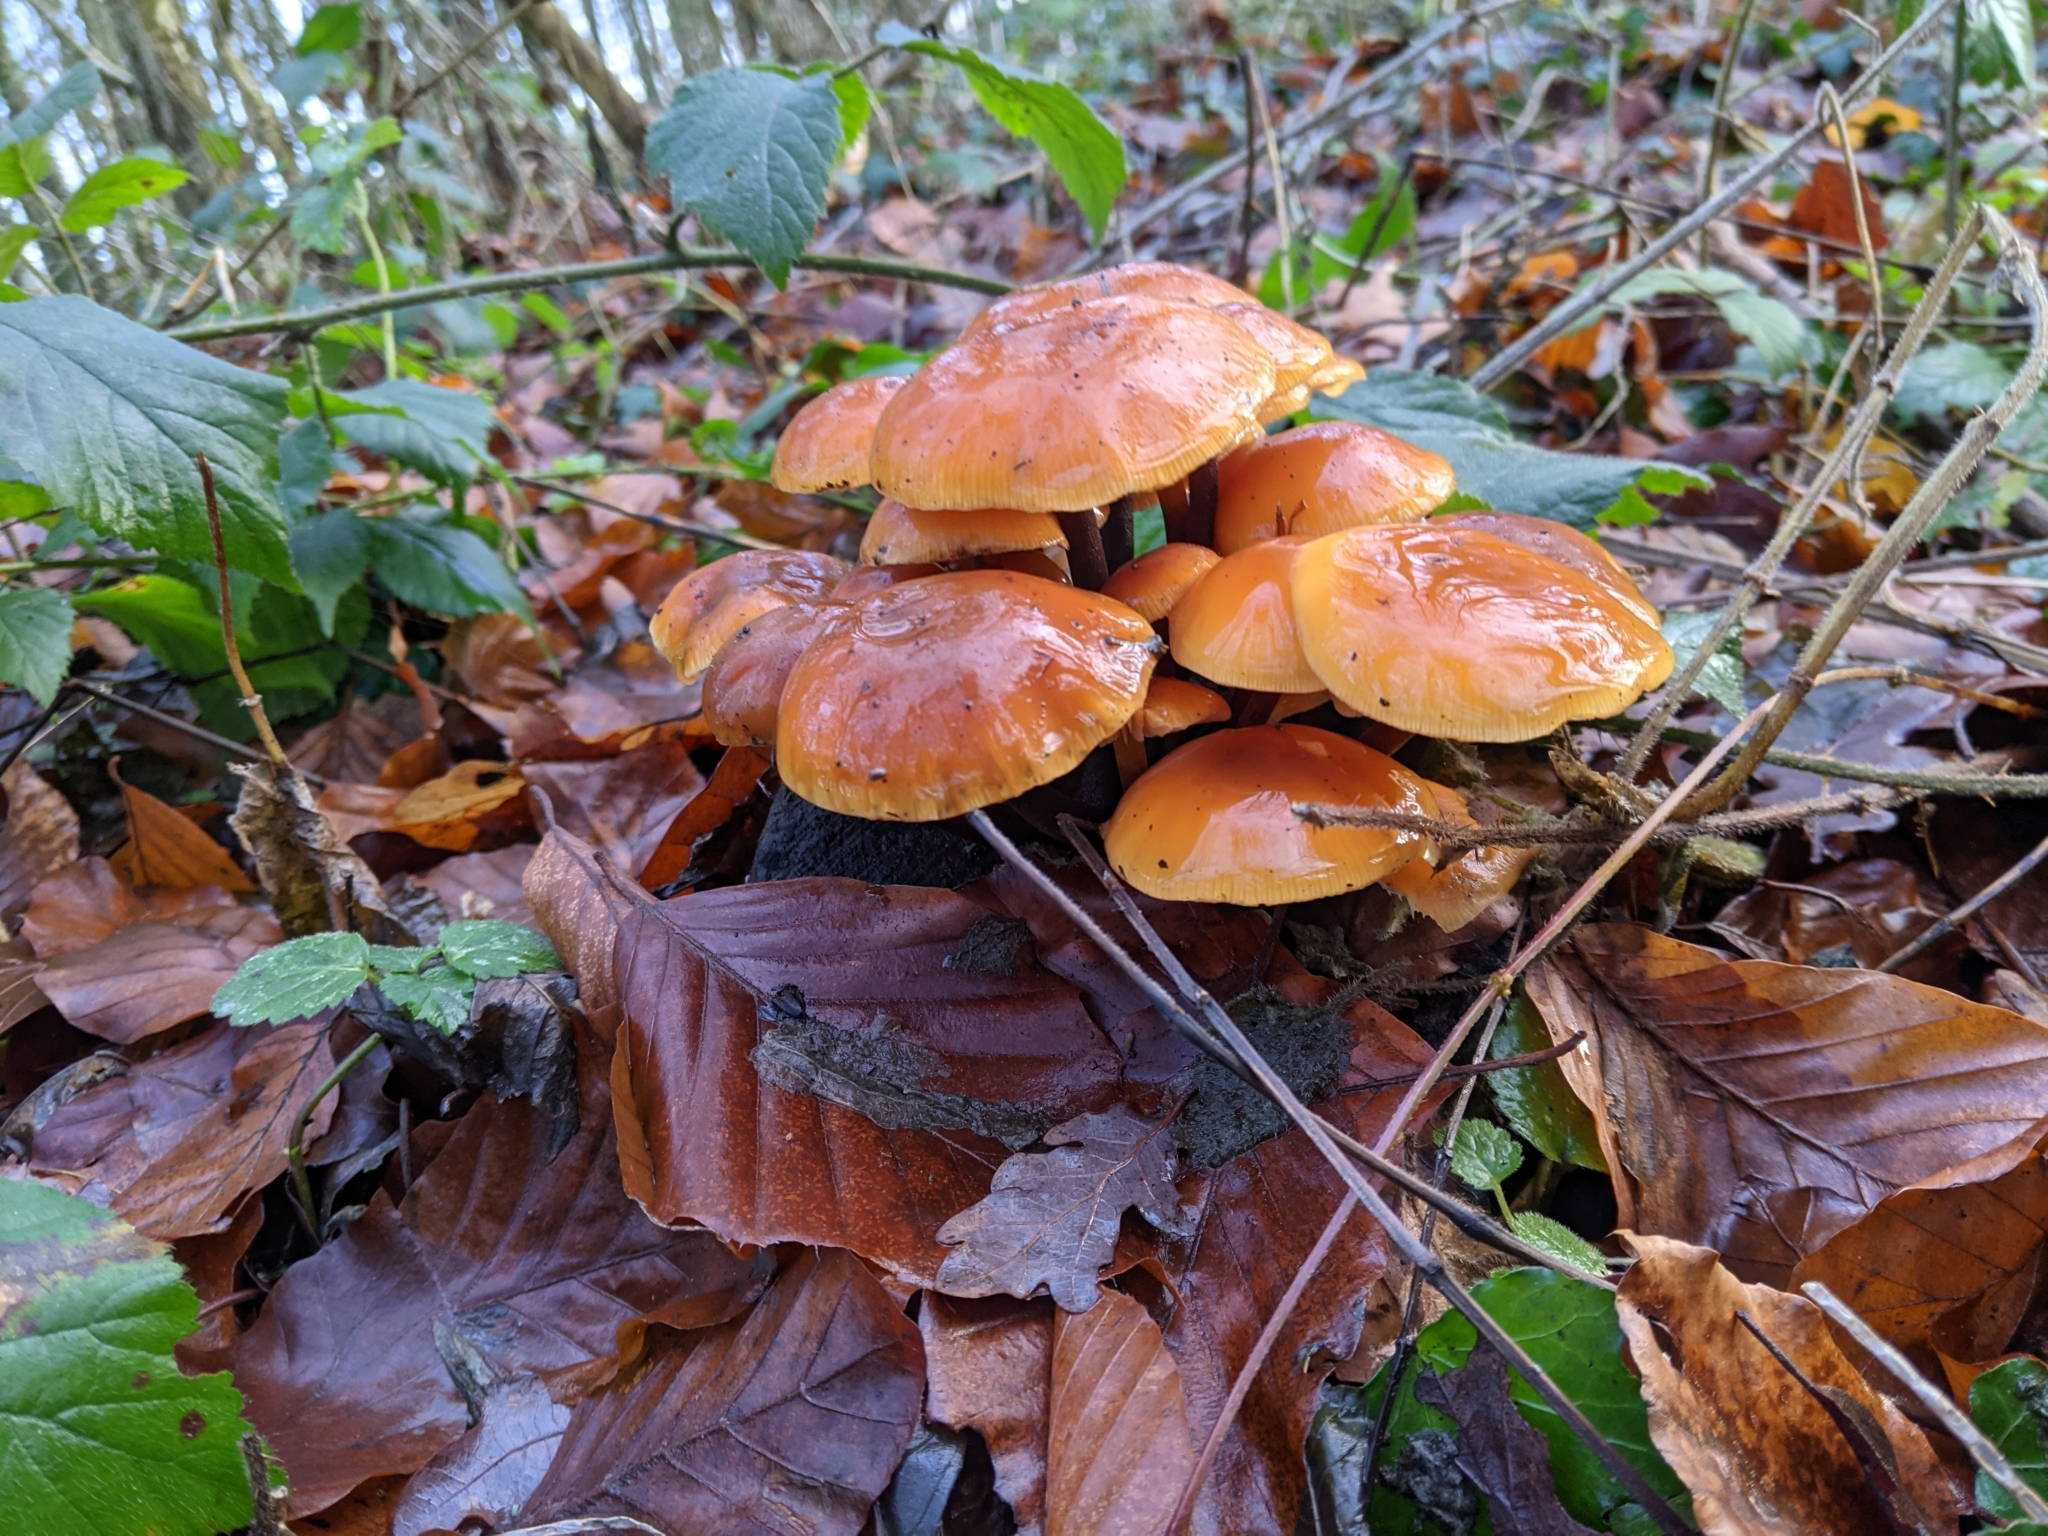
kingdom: Fungi
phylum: Basidiomycota
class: Agaricomycetes
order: Agaricales
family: Physalacriaceae
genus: Flammulina
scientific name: Flammulina
